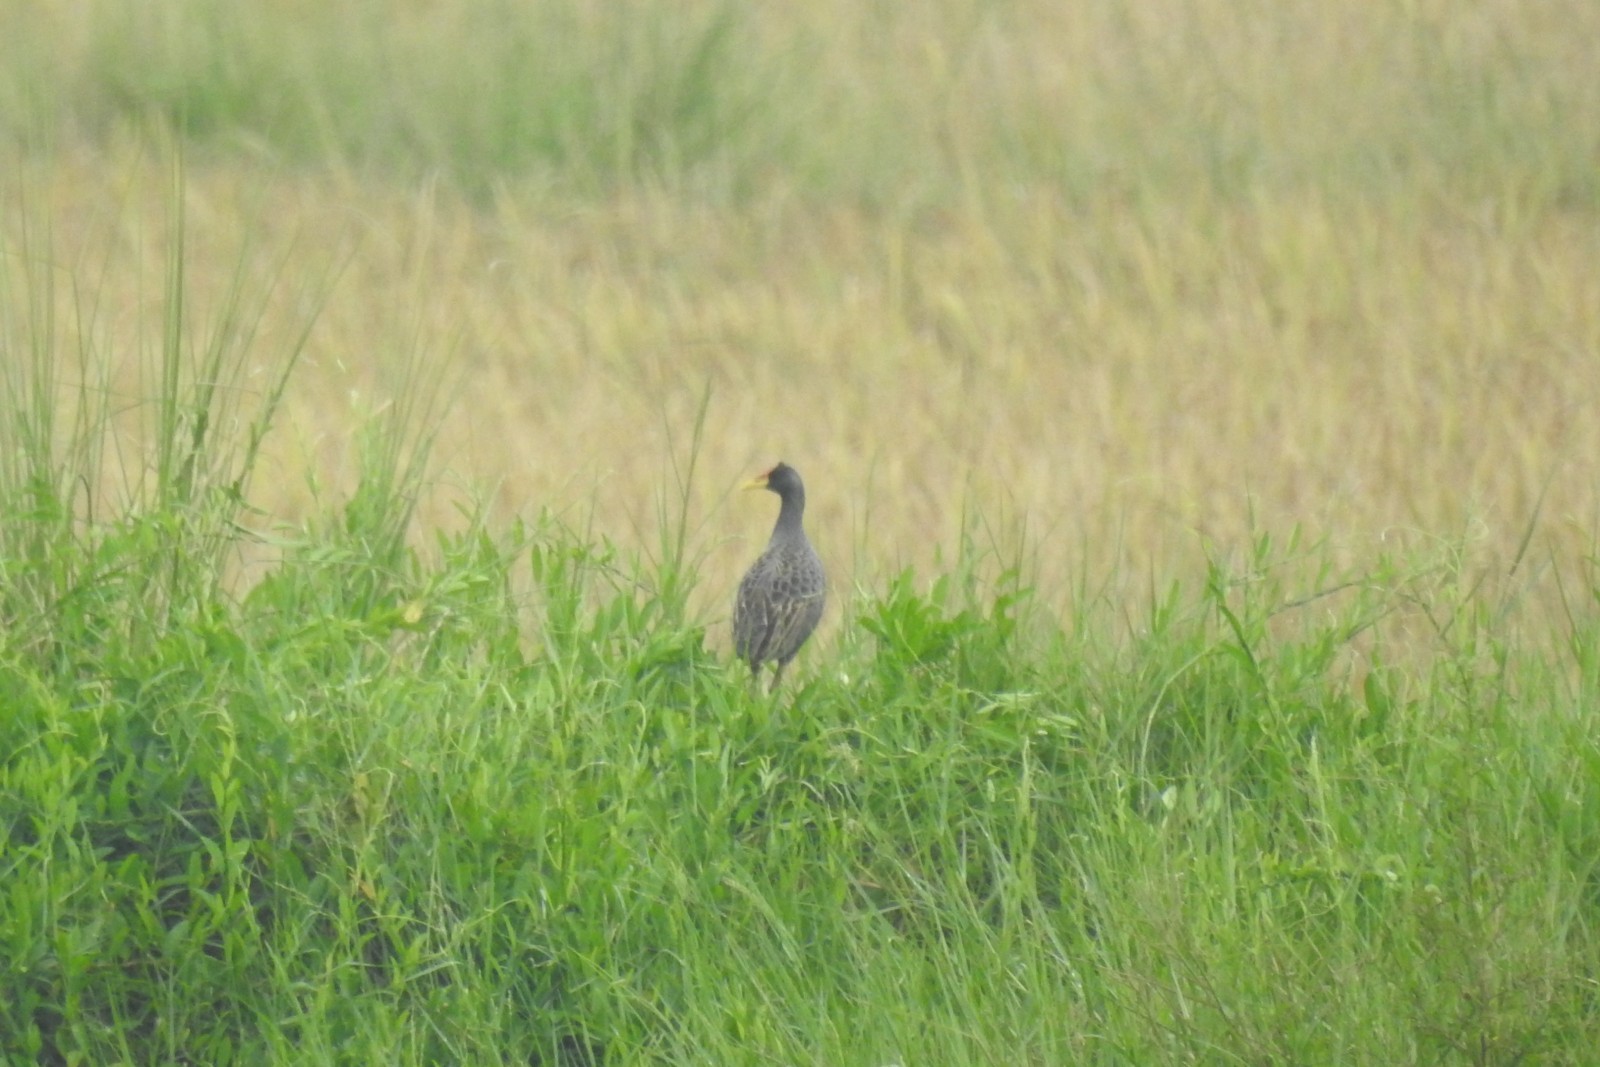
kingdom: Animalia
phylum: Chordata
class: Aves
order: Gruiformes
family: Rallidae
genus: Gallicrex
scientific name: Gallicrex cinerea
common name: Watercock
